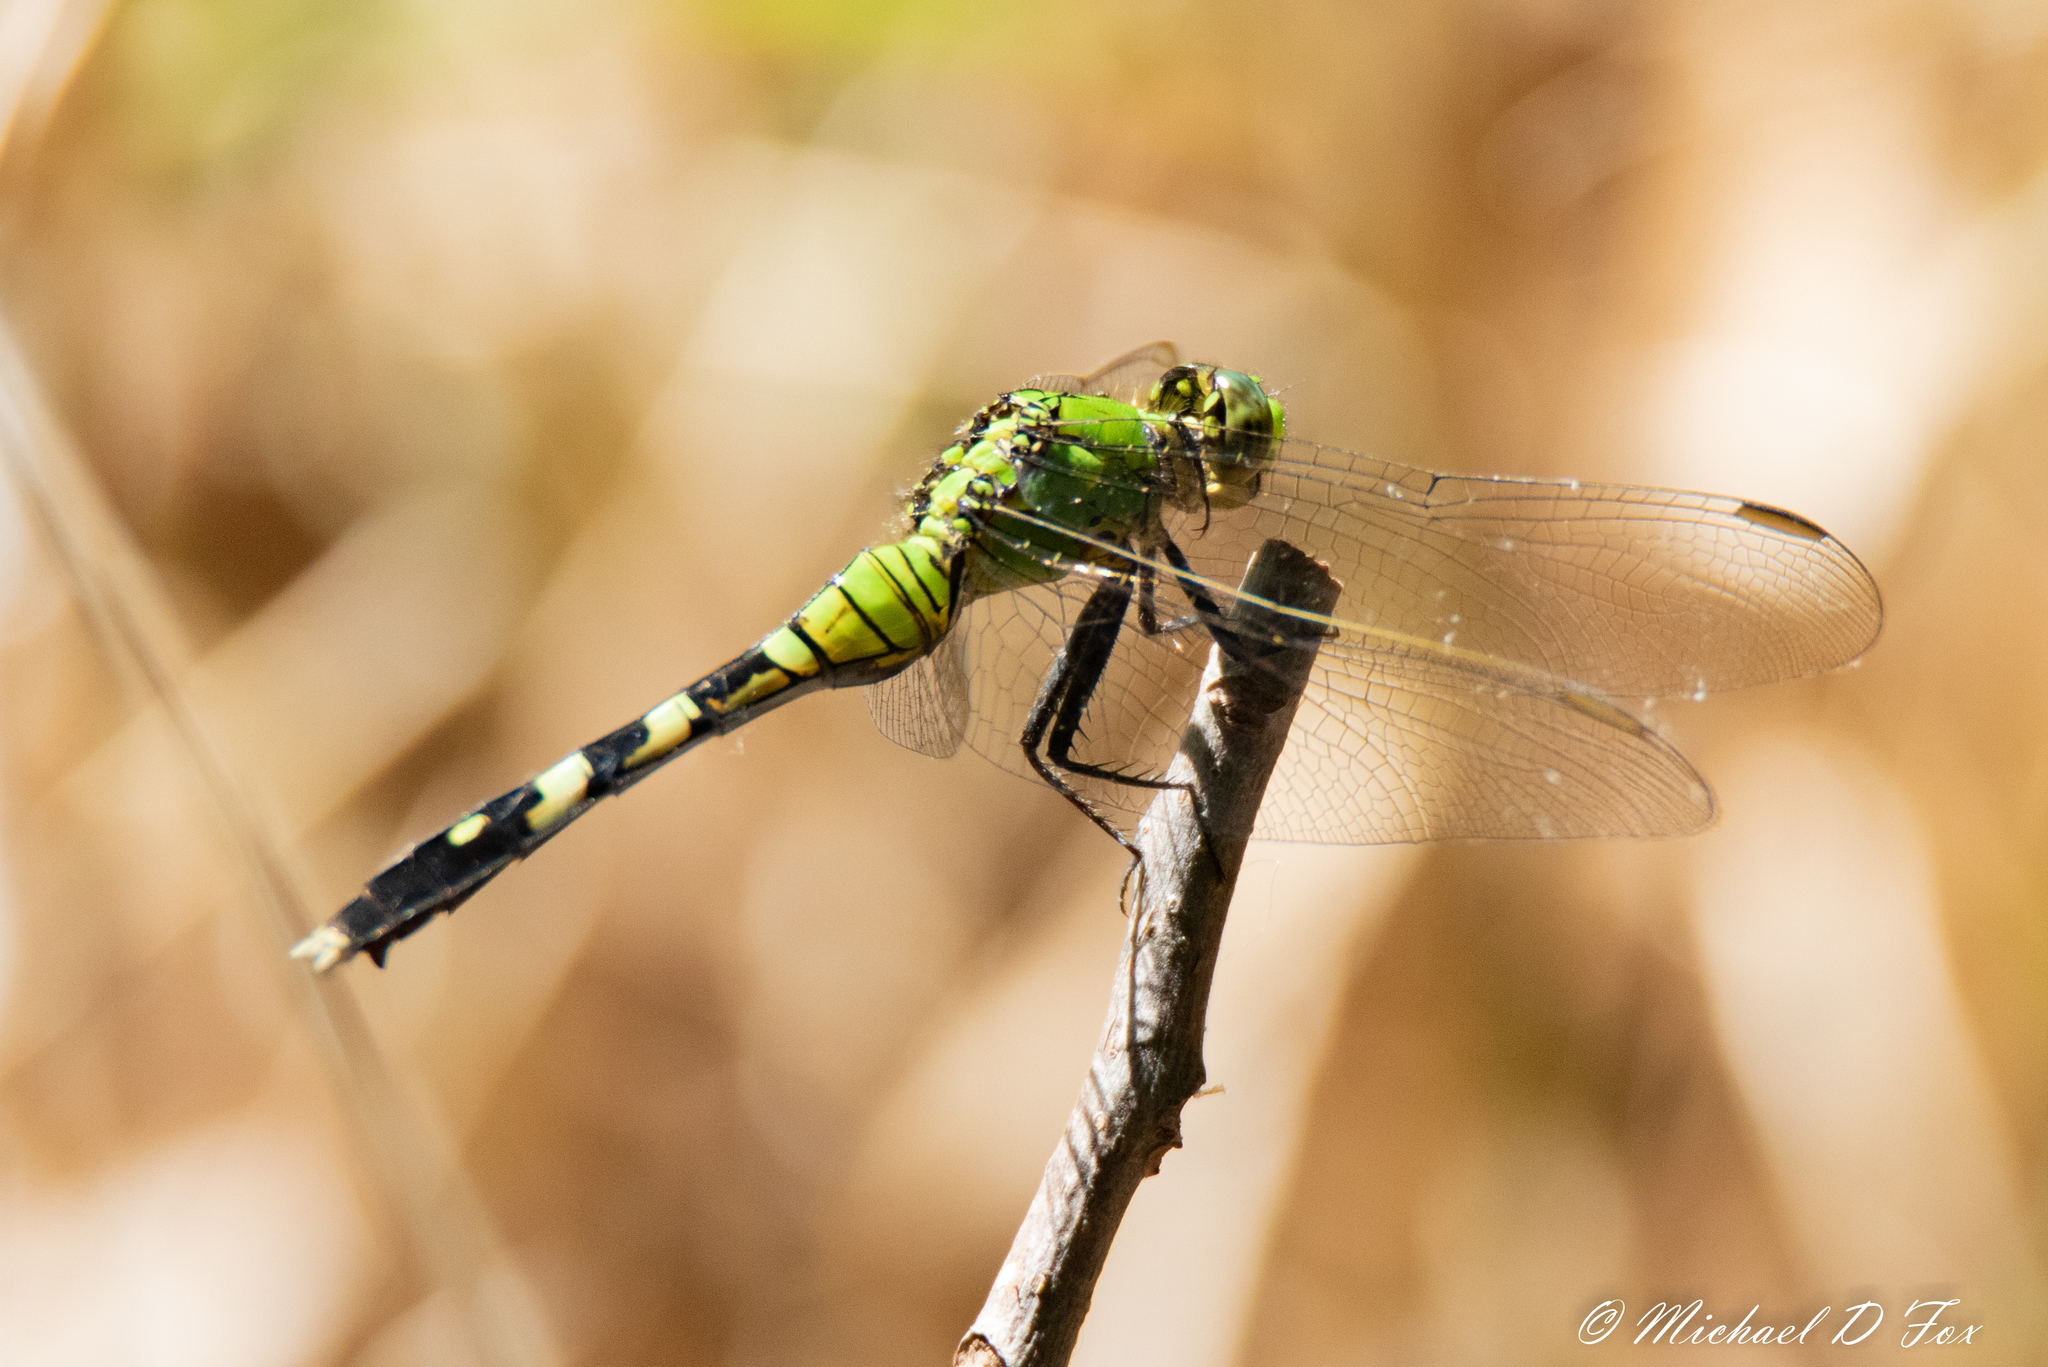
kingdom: Animalia
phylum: Arthropoda
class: Insecta
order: Odonata
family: Libellulidae
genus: Erythemis
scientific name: Erythemis simplicicollis
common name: Eastern pondhawk
